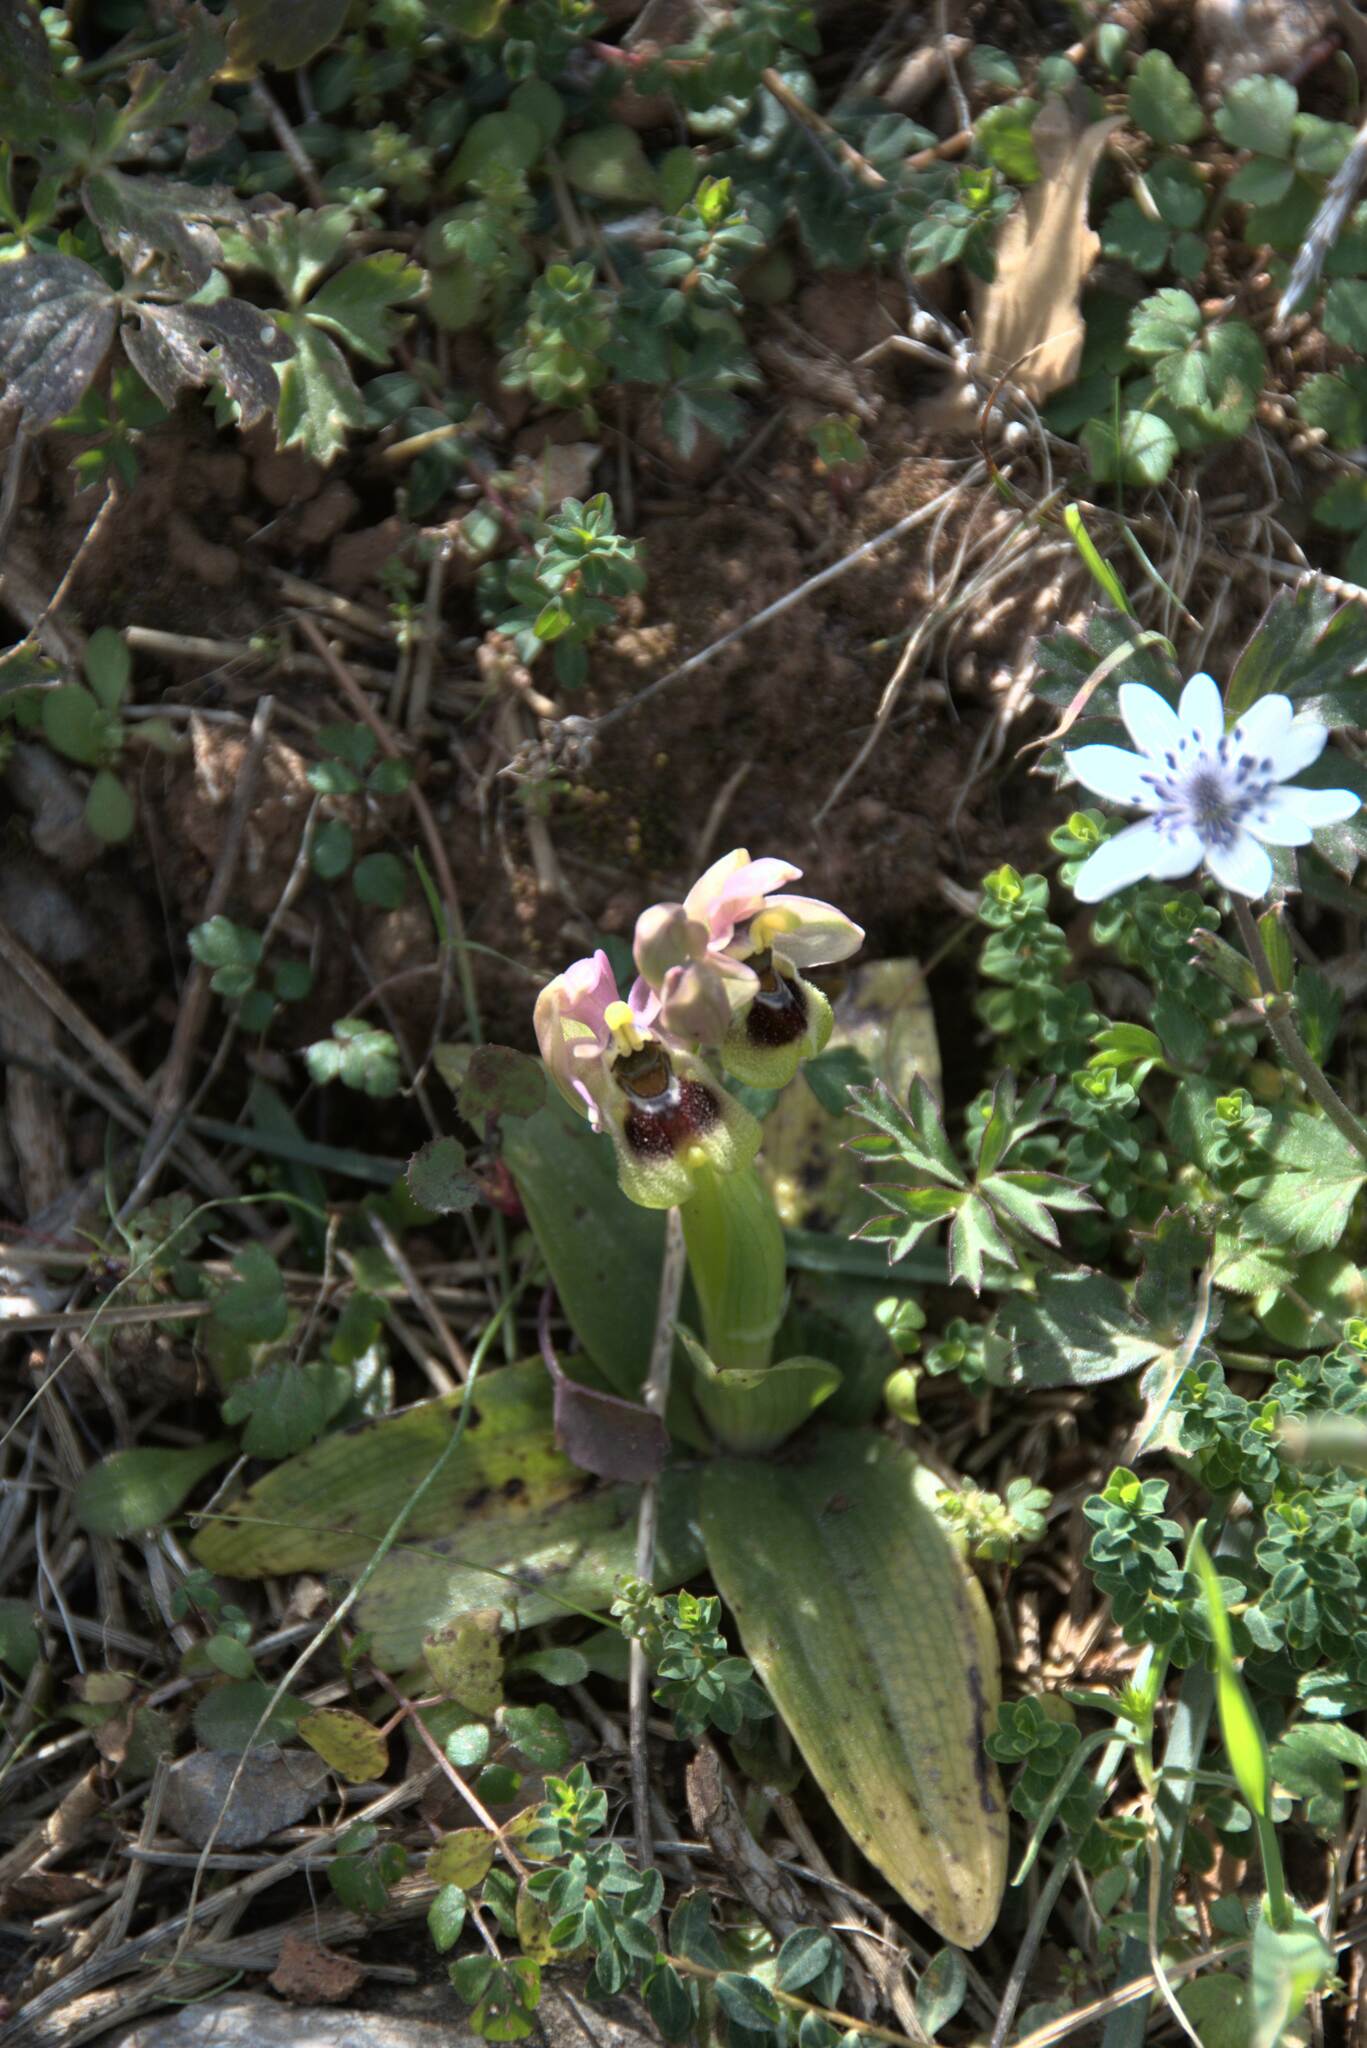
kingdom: Plantae
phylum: Tracheophyta
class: Liliopsida
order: Asparagales
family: Orchidaceae
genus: Ophrys
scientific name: Ophrys tenthredinifera
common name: Sawfly orchid
